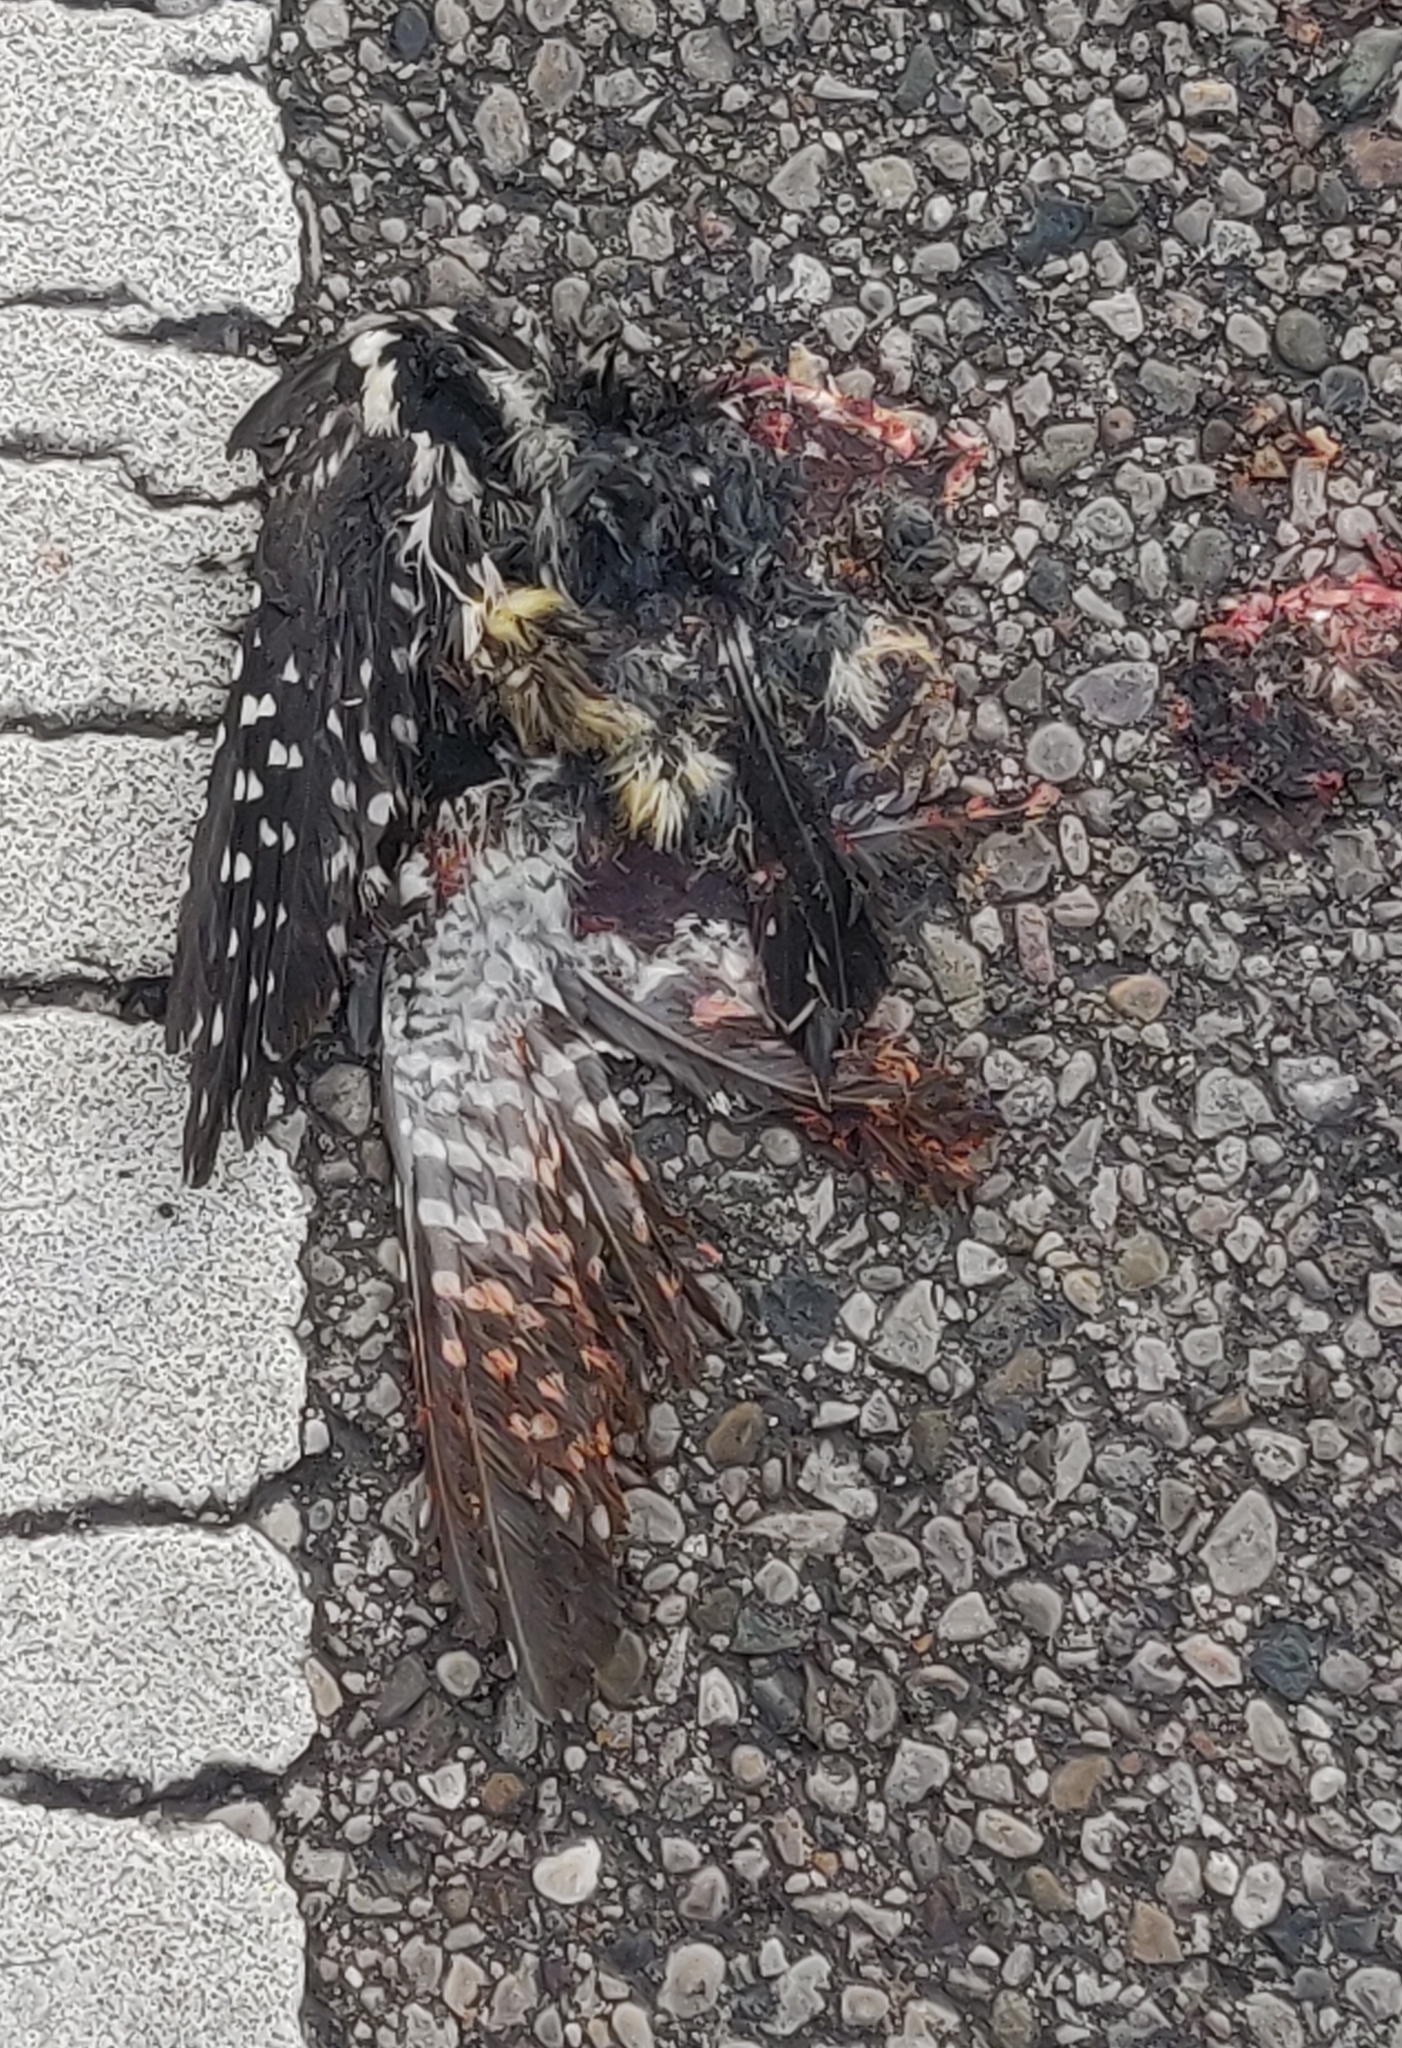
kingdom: Animalia
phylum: Chordata
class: Aves
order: Piciformes
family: Picidae
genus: Dryobates
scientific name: Dryobates pubescens
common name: Downy woodpecker
